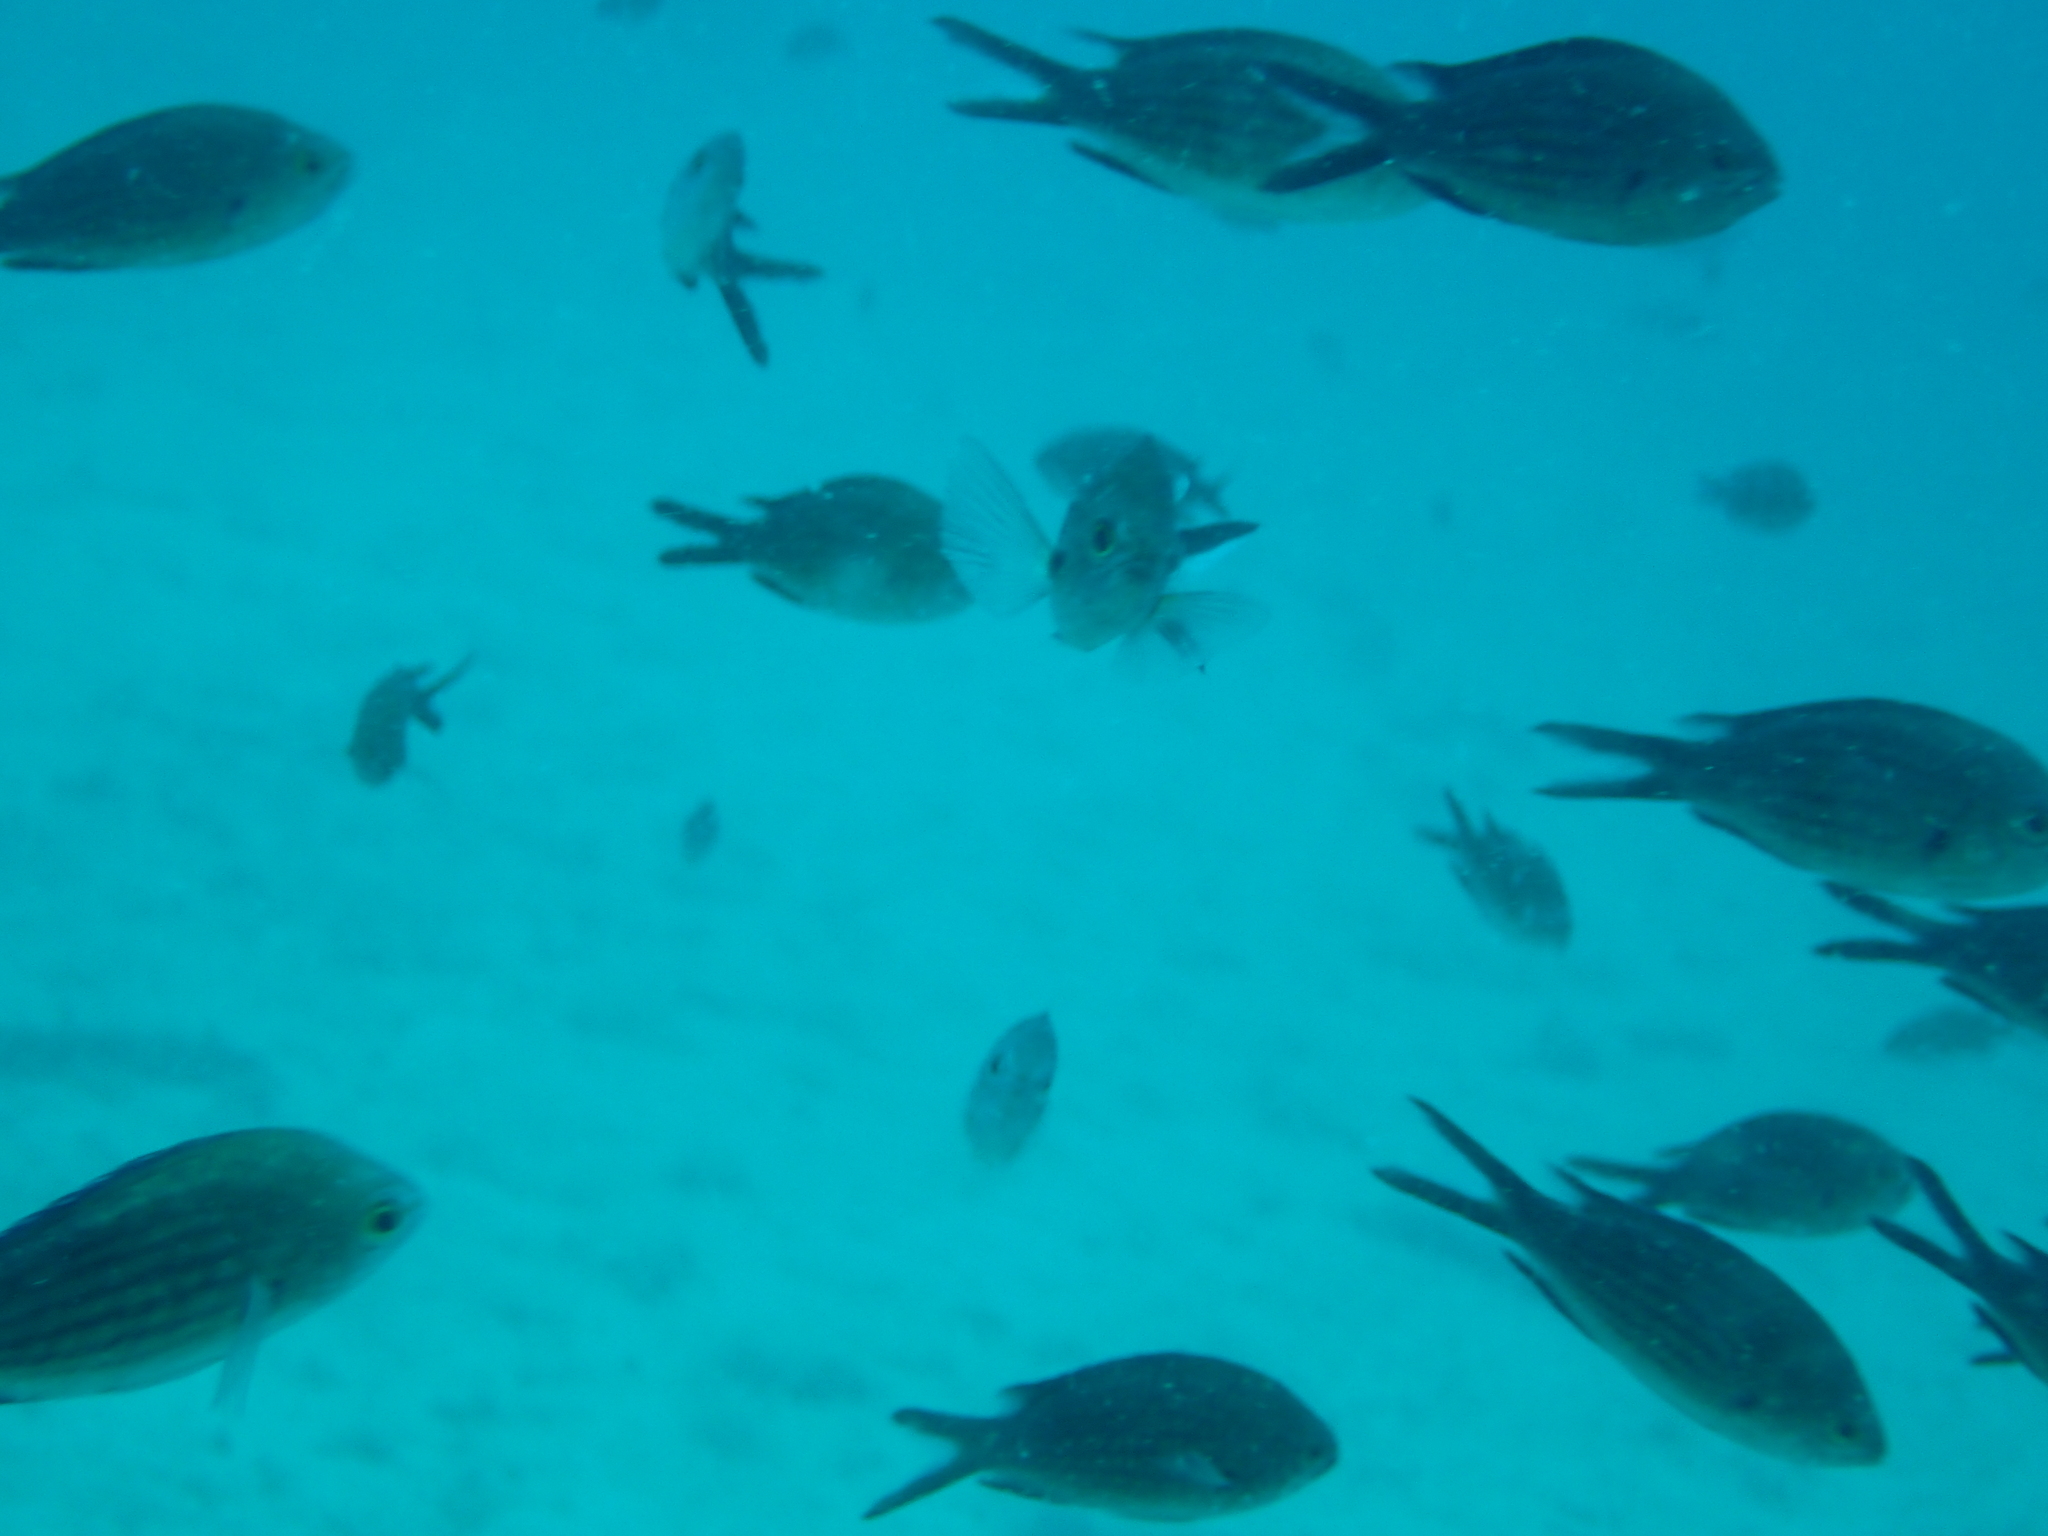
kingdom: Animalia
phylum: Chordata
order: Perciformes
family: Pomacentridae
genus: Chromis
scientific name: Chromis chromis
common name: Damselfish
